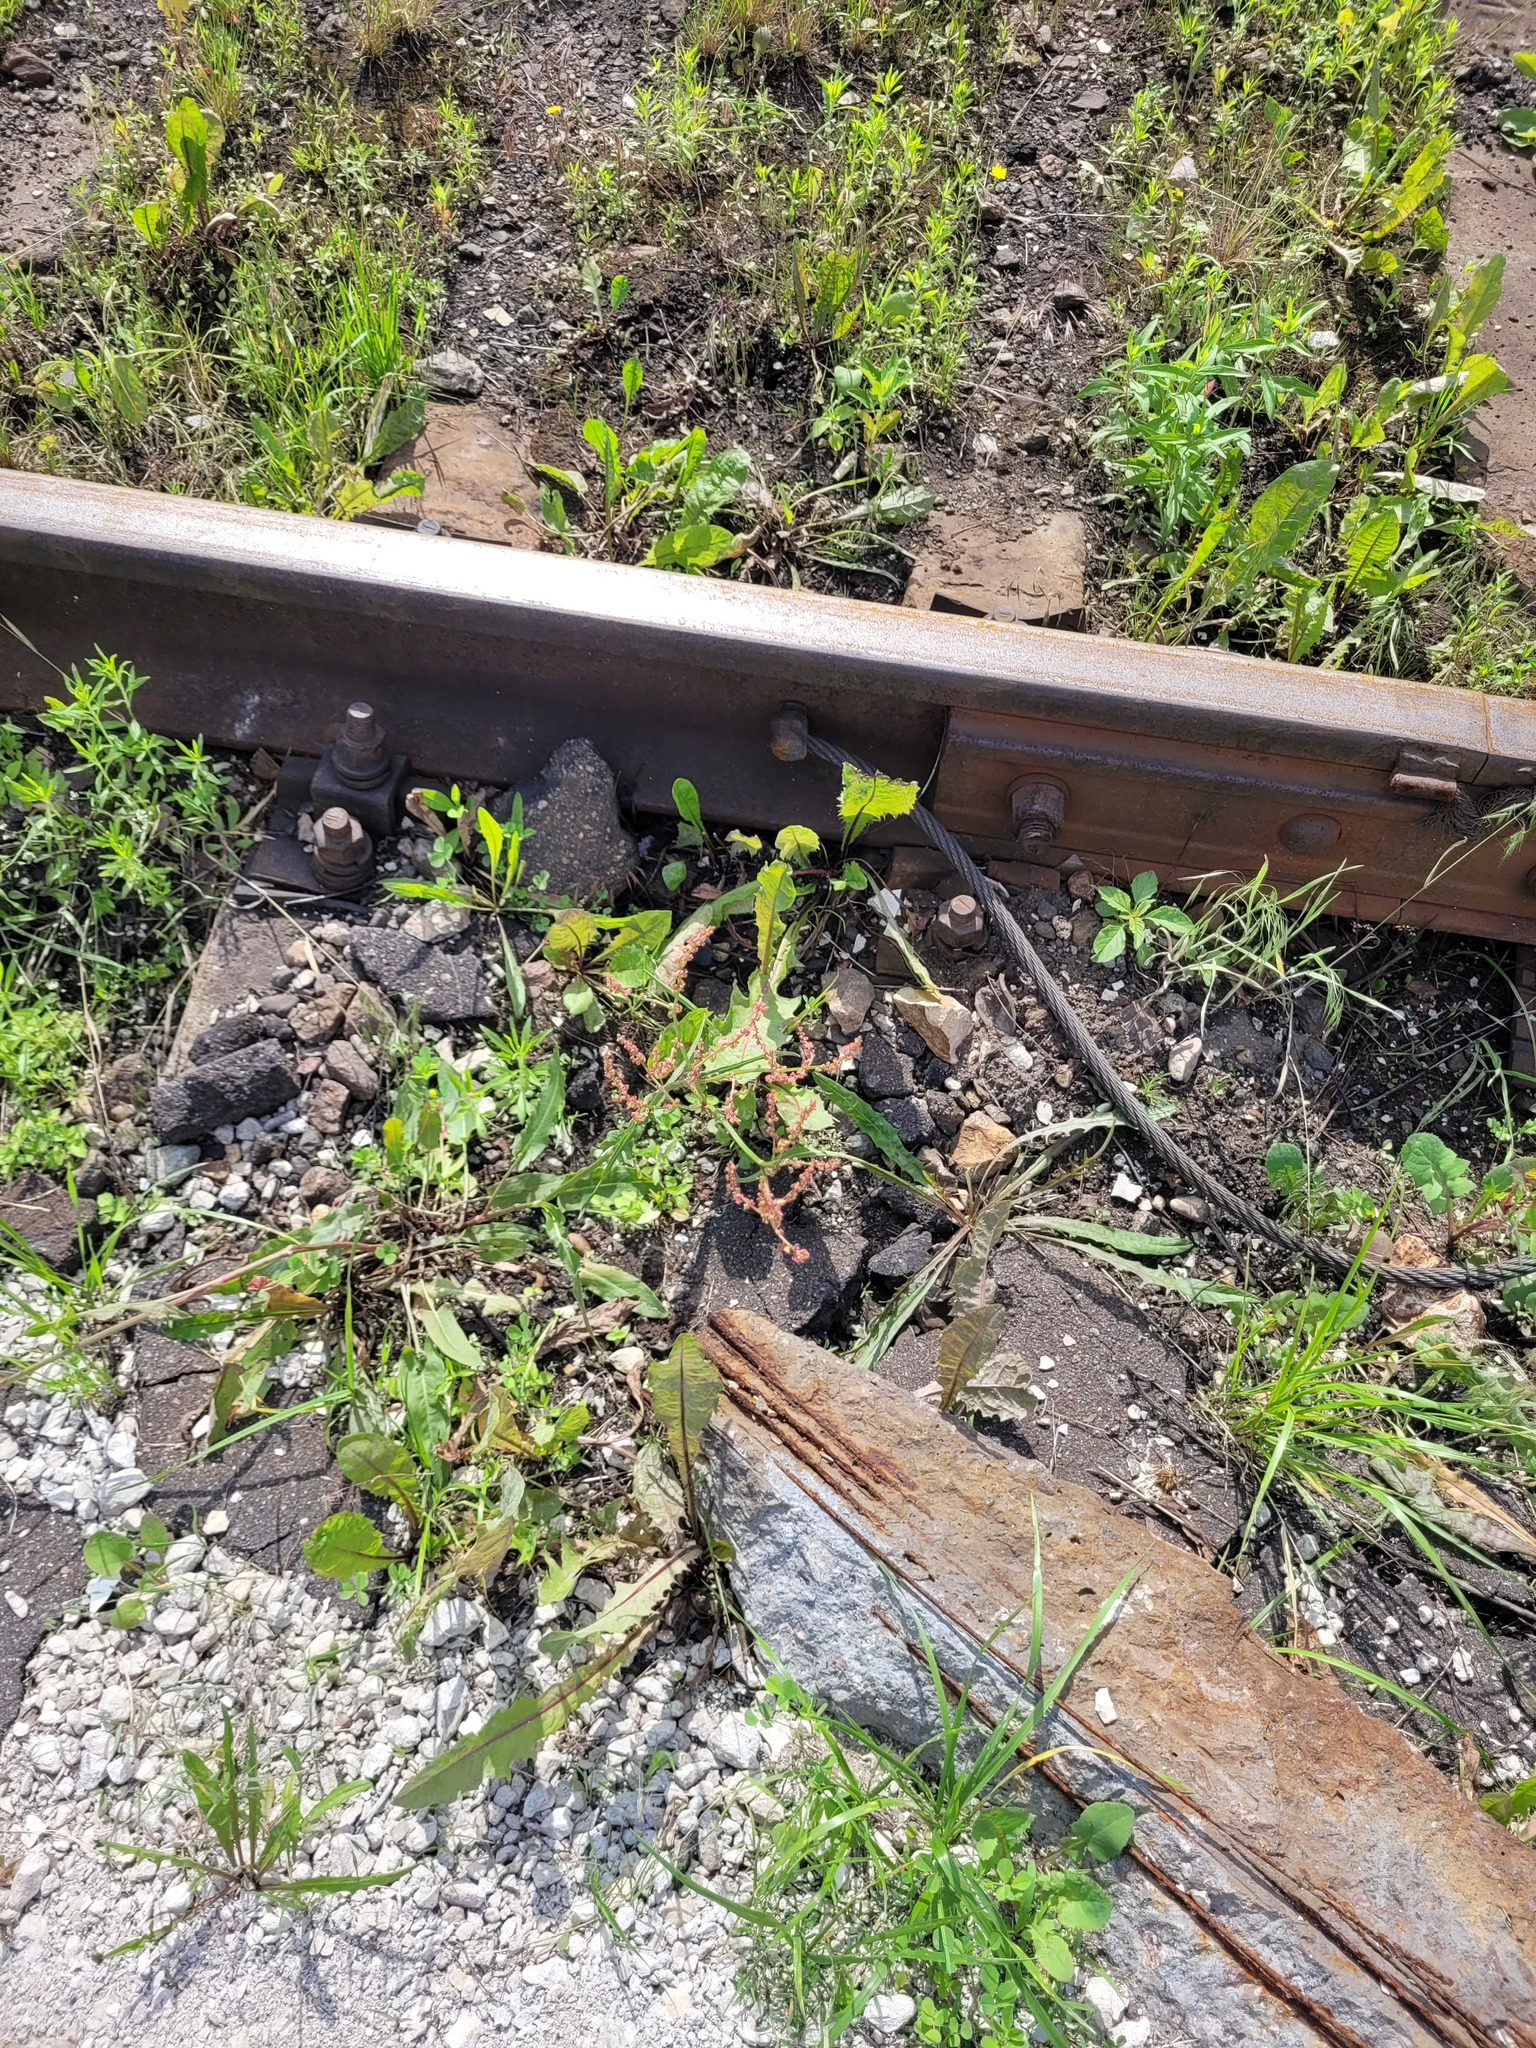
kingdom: Plantae
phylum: Tracheophyta
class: Magnoliopsida
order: Caryophyllales
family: Polygonaceae
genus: Rumex
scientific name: Rumex thyrsiflorus
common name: Garden sorrel
